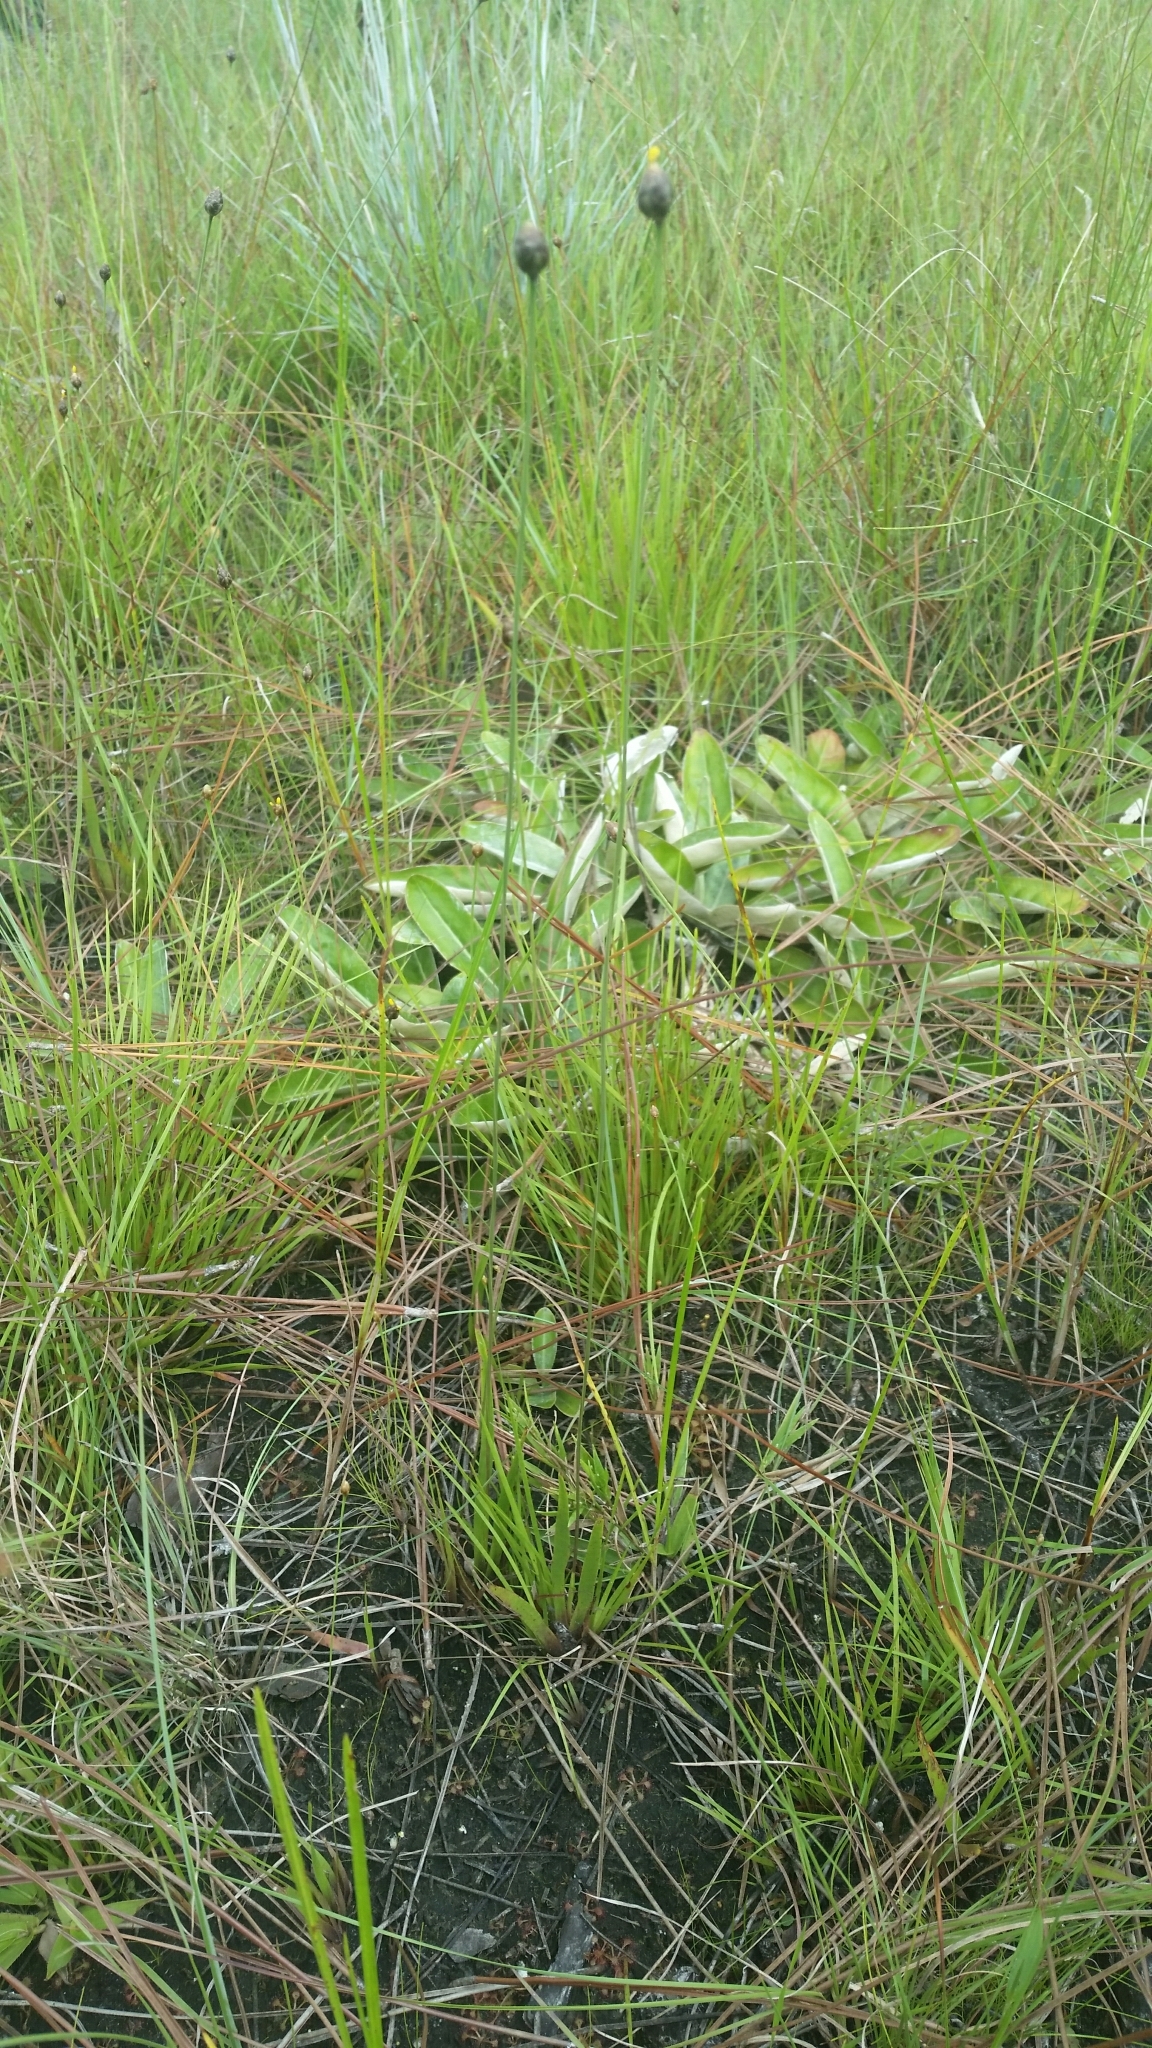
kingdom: Plantae
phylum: Tracheophyta
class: Liliopsida
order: Poales
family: Xyridaceae
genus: Xyris
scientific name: Xyris floridana
